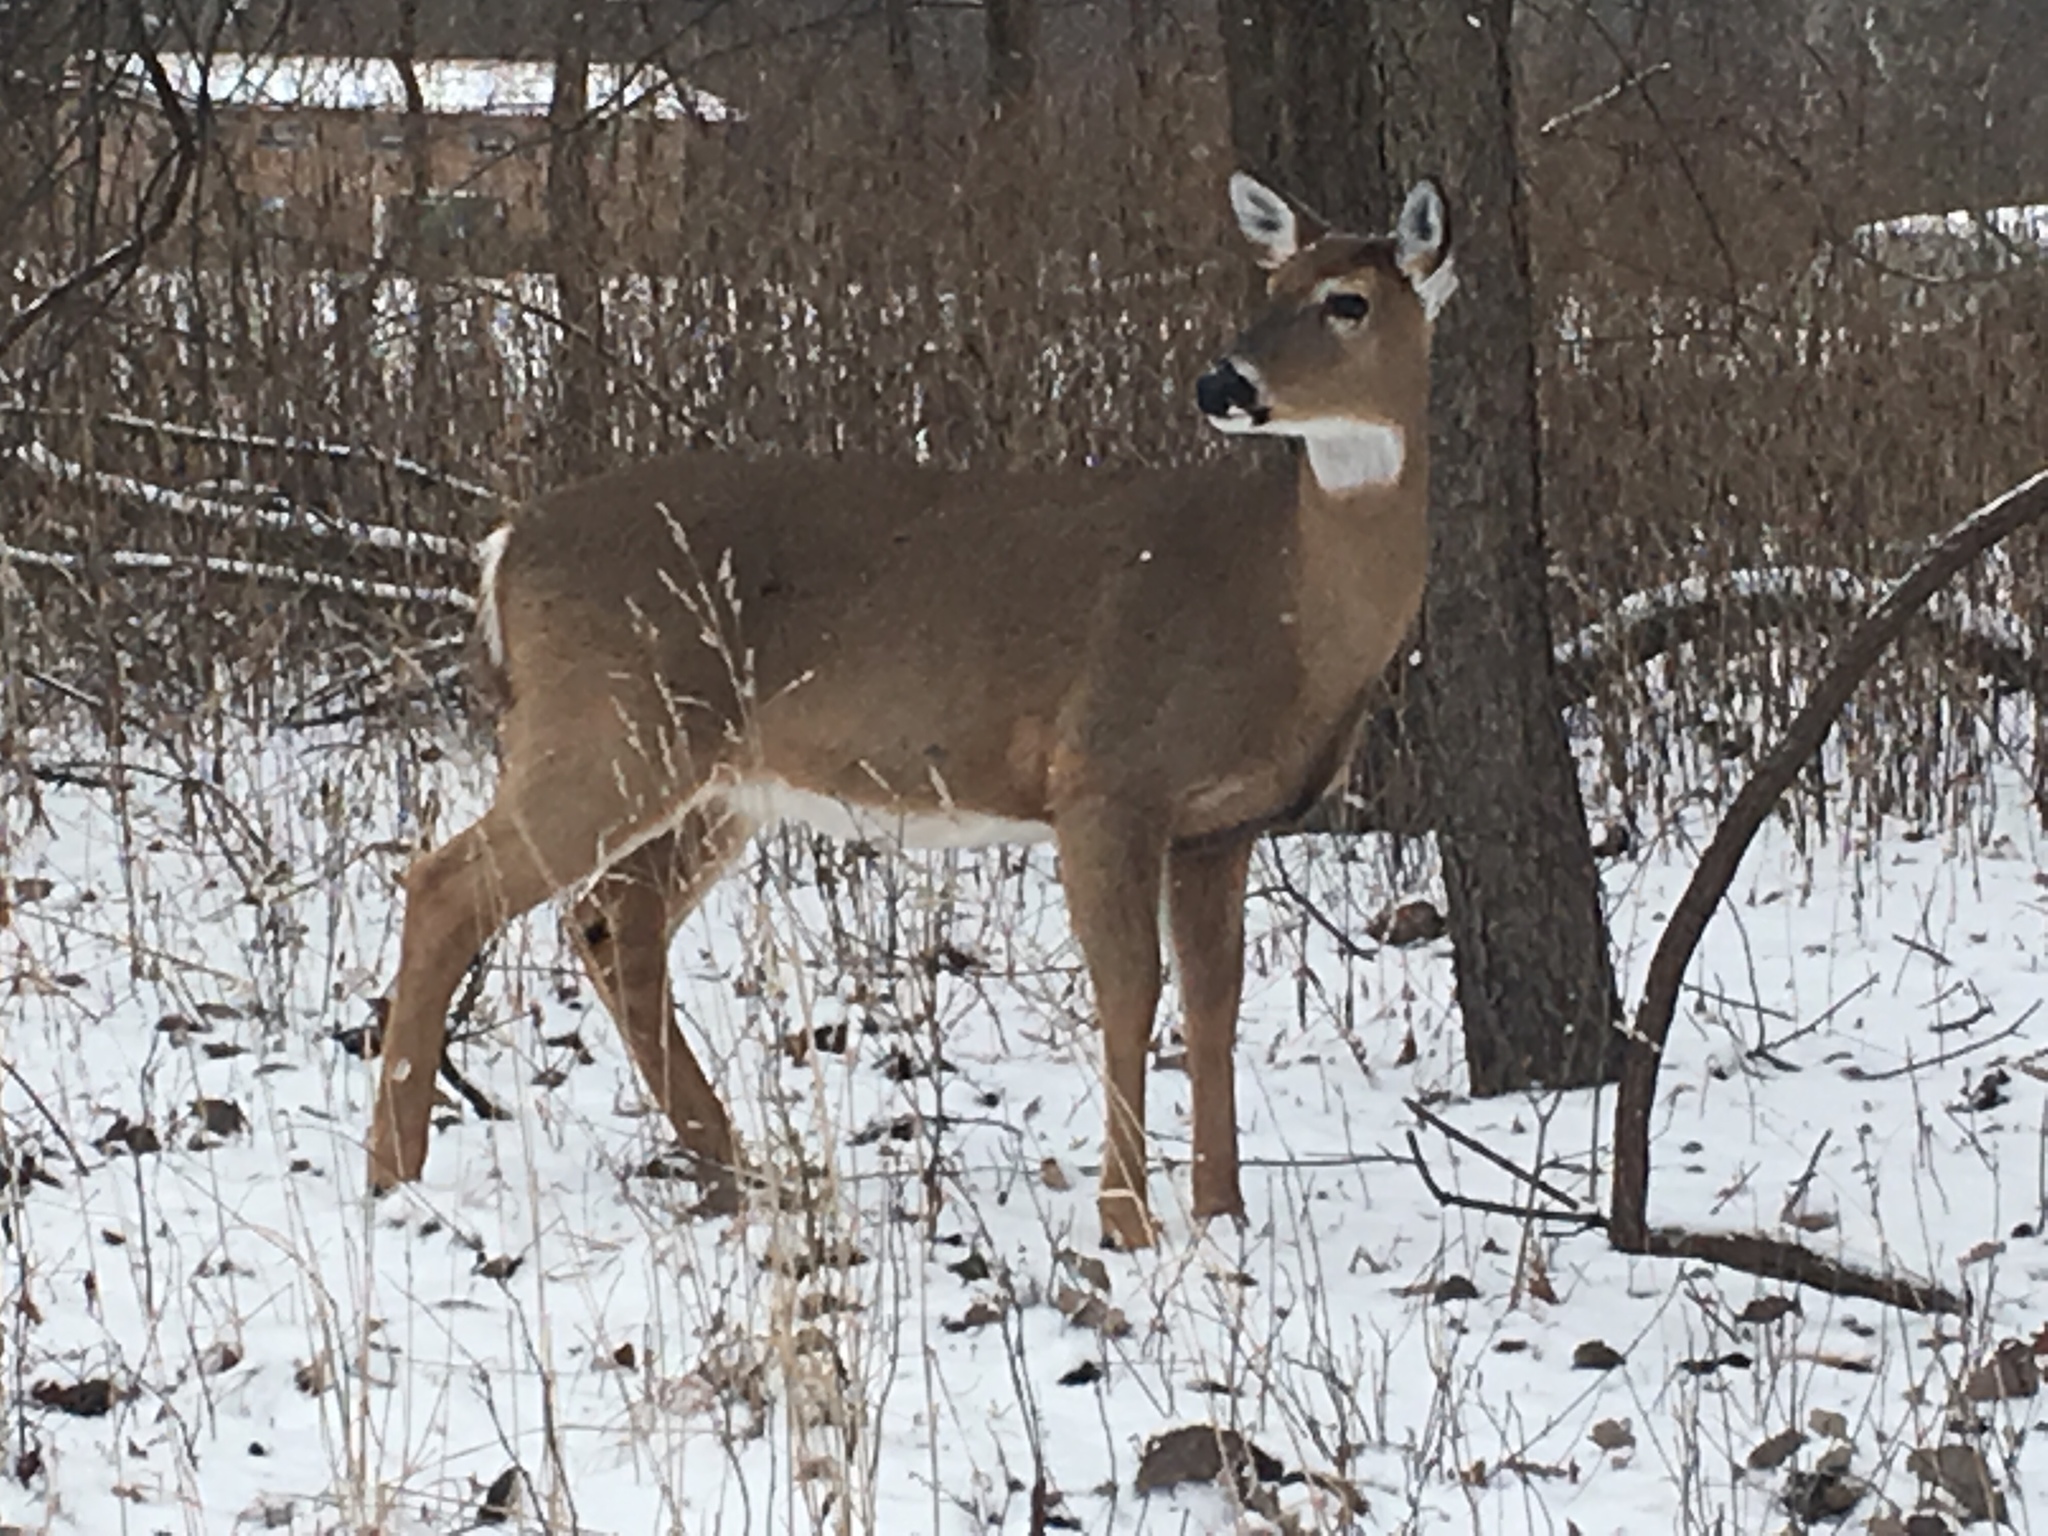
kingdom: Animalia
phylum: Chordata
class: Mammalia
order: Artiodactyla
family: Cervidae
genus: Odocoileus
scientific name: Odocoileus virginianus
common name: White-tailed deer
